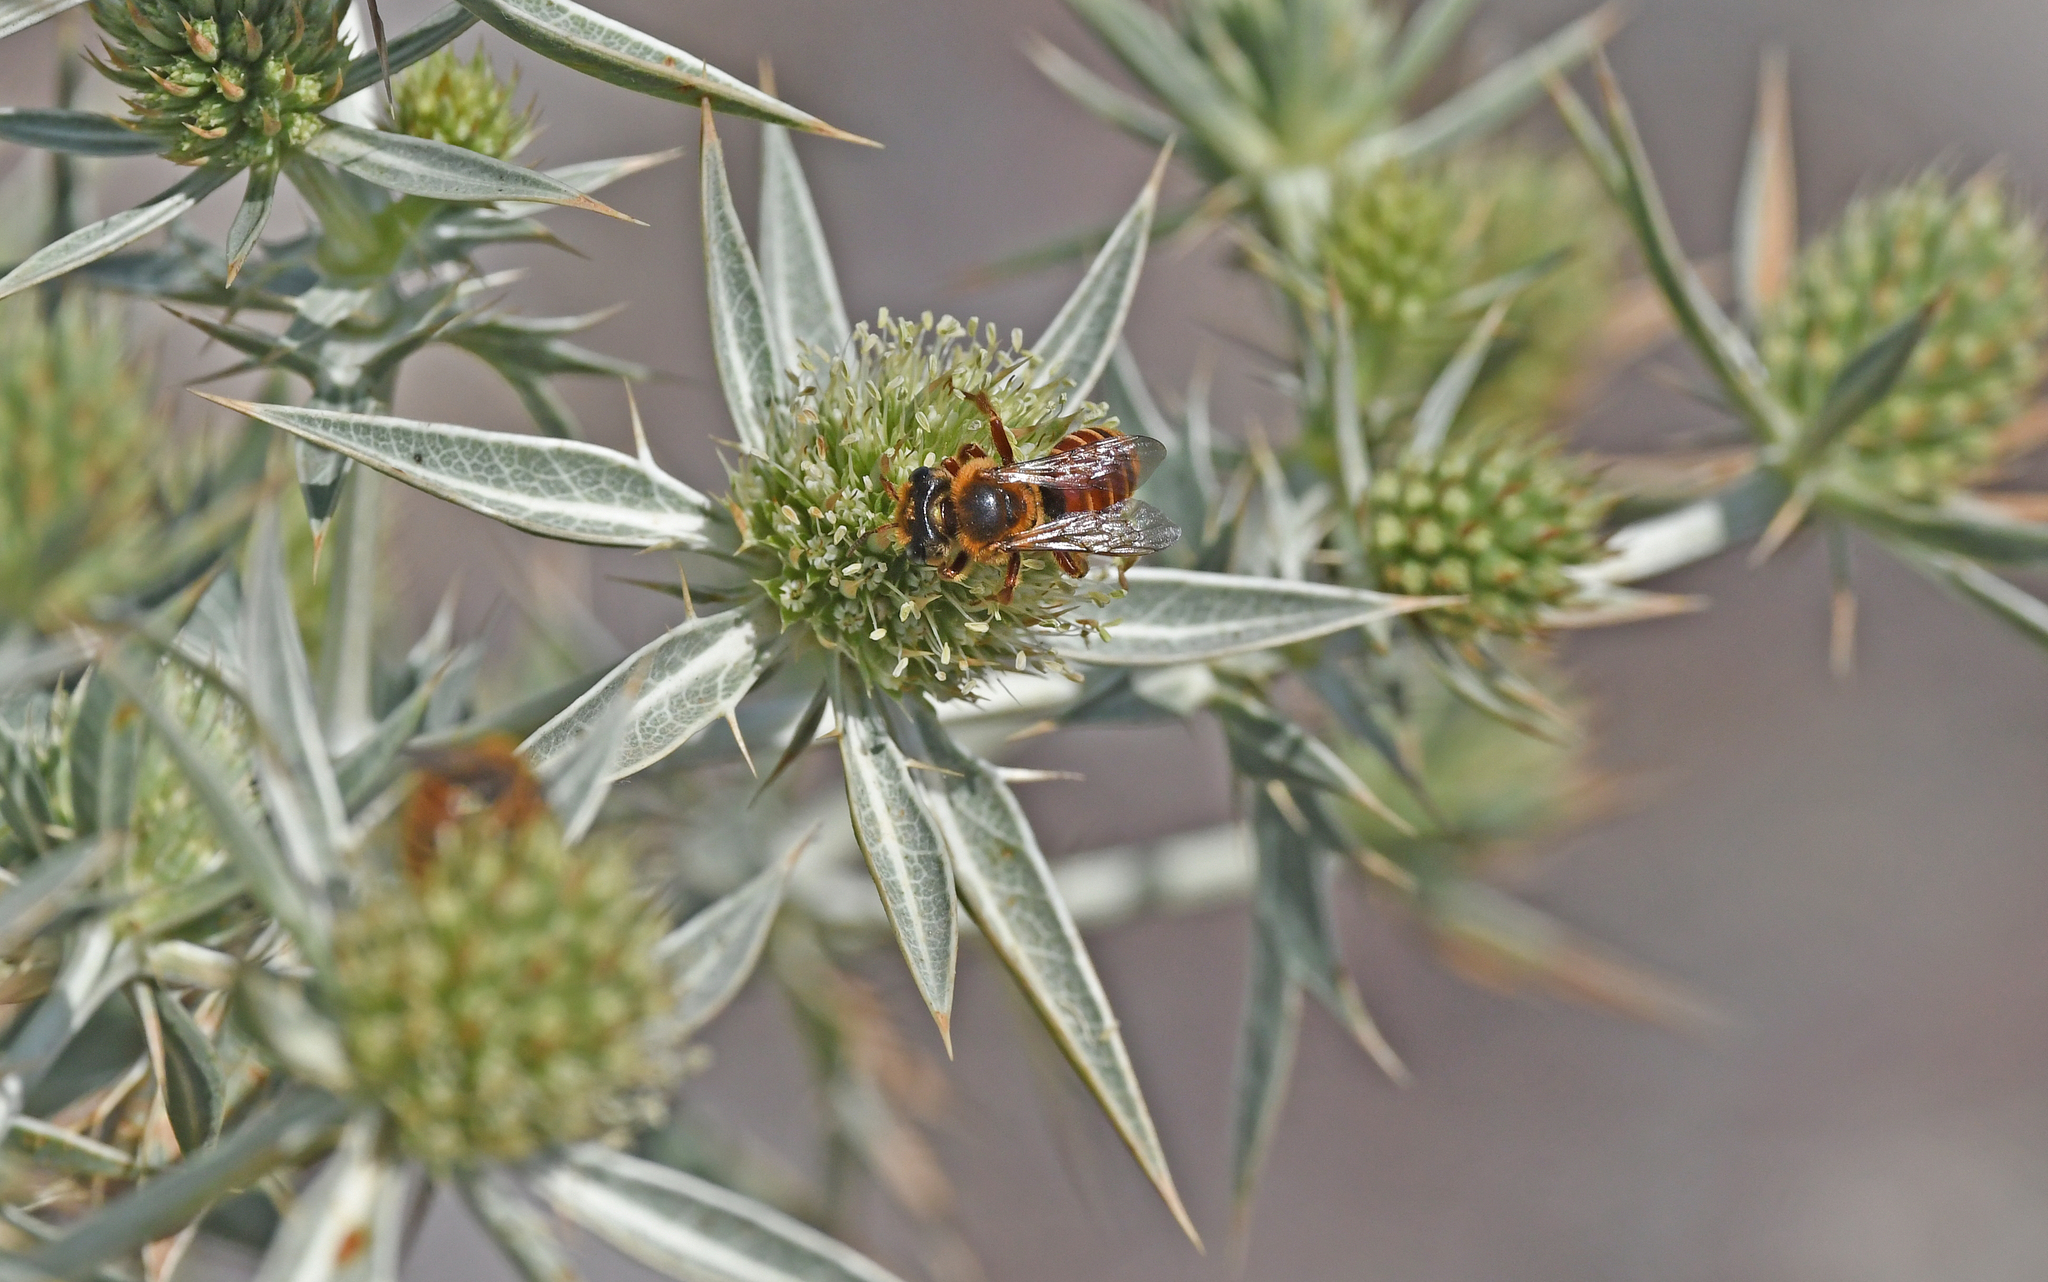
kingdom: Animalia
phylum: Arthropoda
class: Insecta
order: Hymenoptera
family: Andrenidae
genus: Andrena
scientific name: Andrena variabilis
